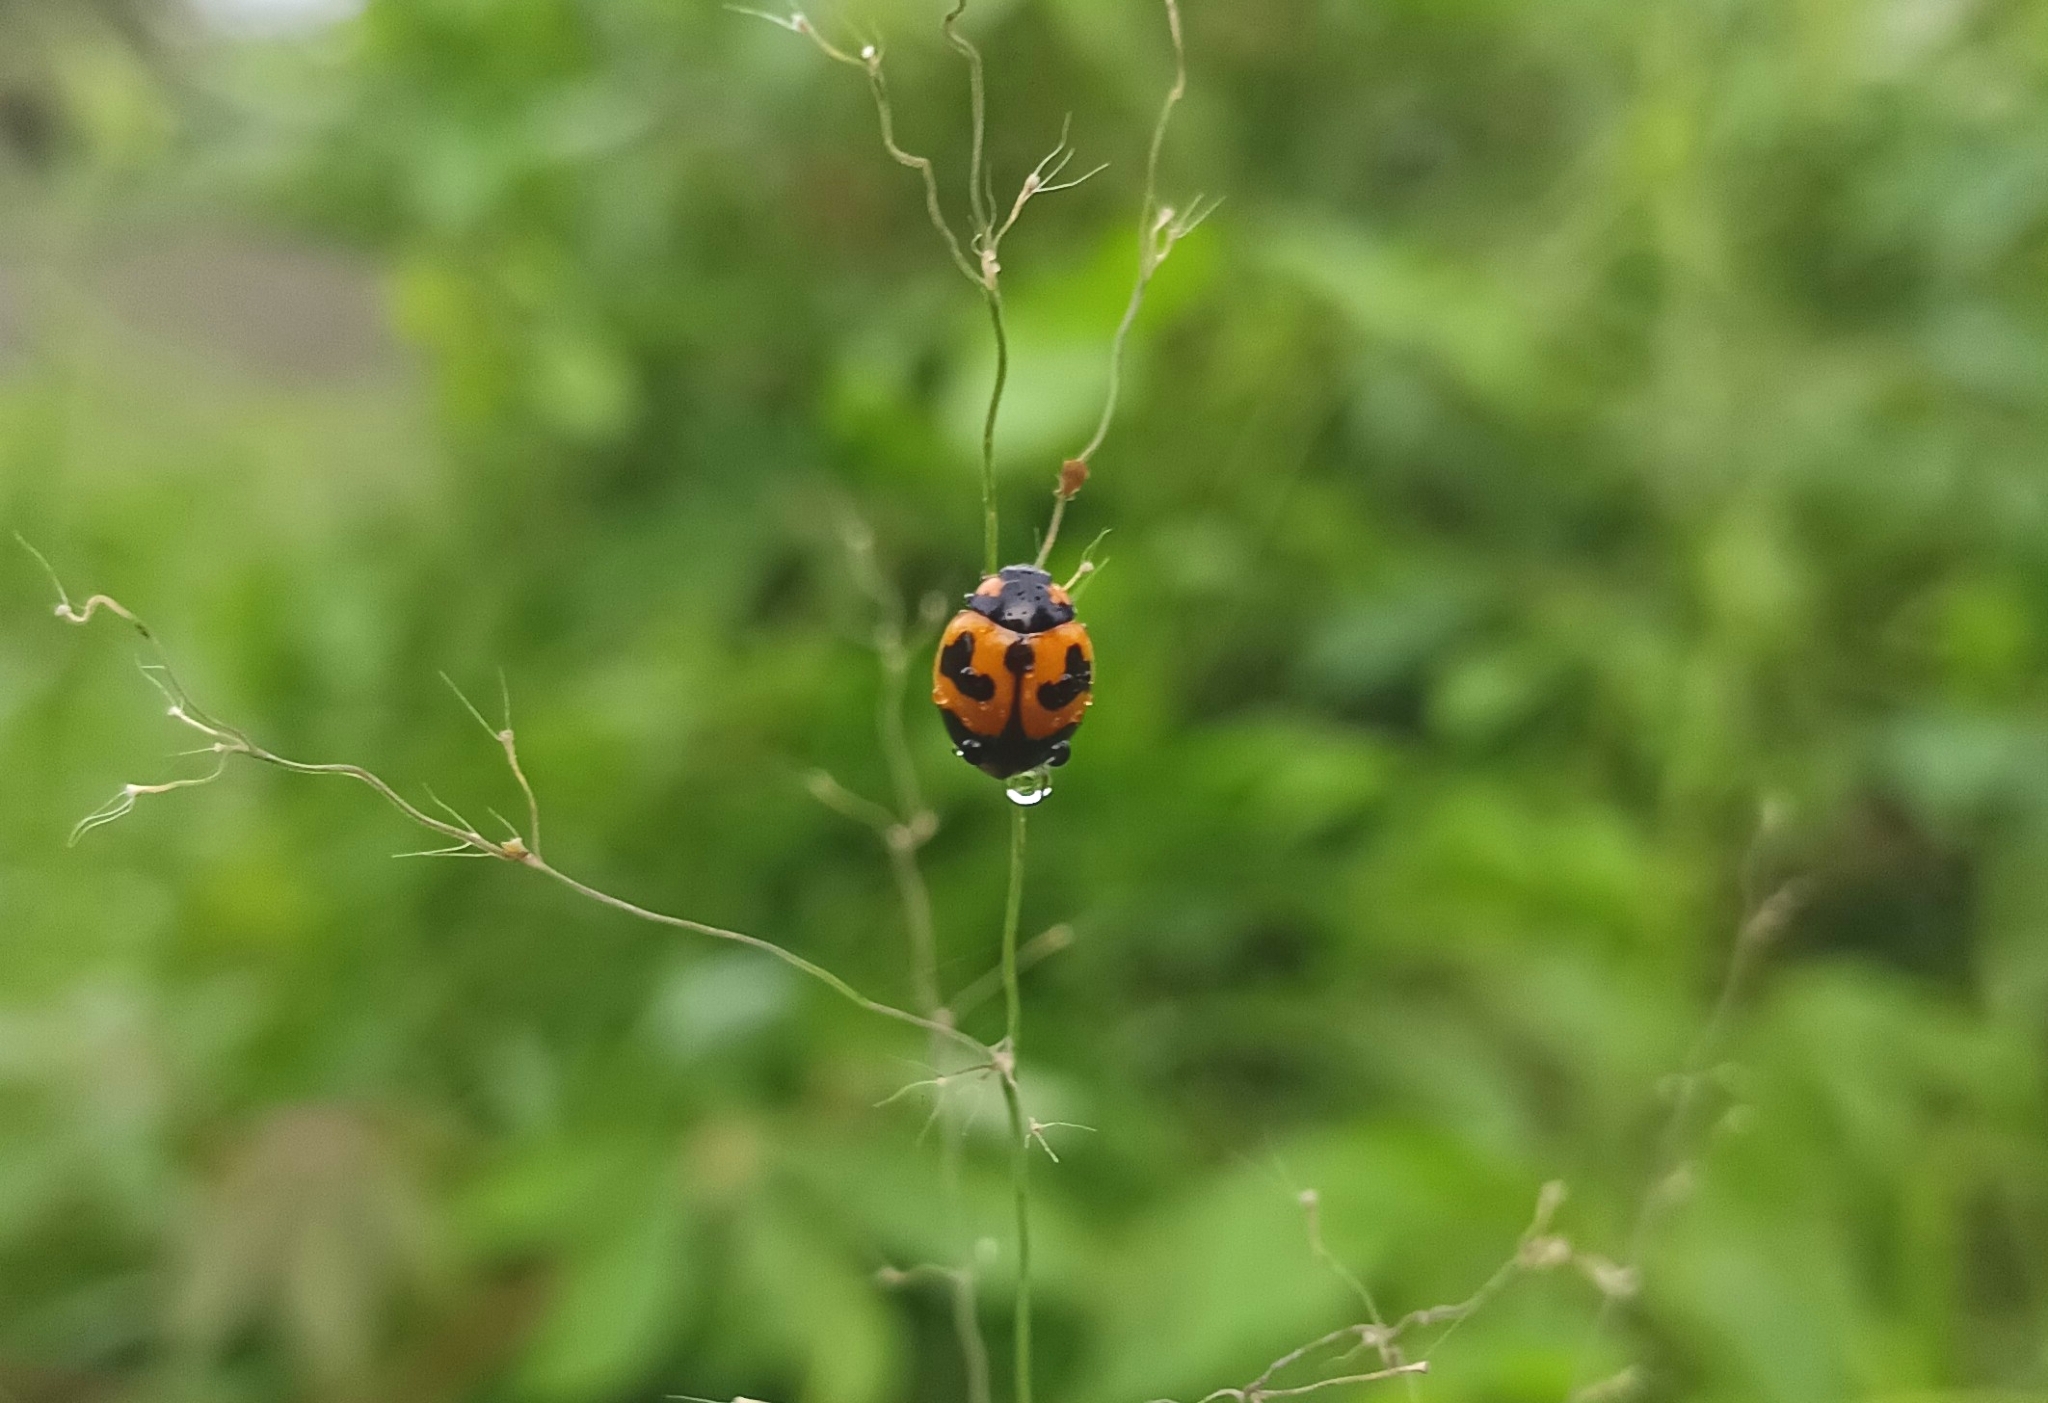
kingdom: Animalia
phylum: Arthropoda
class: Insecta
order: Coleoptera
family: Coccinellidae
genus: Coccinella
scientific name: Coccinella transversalis
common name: Transverse lady beetle
